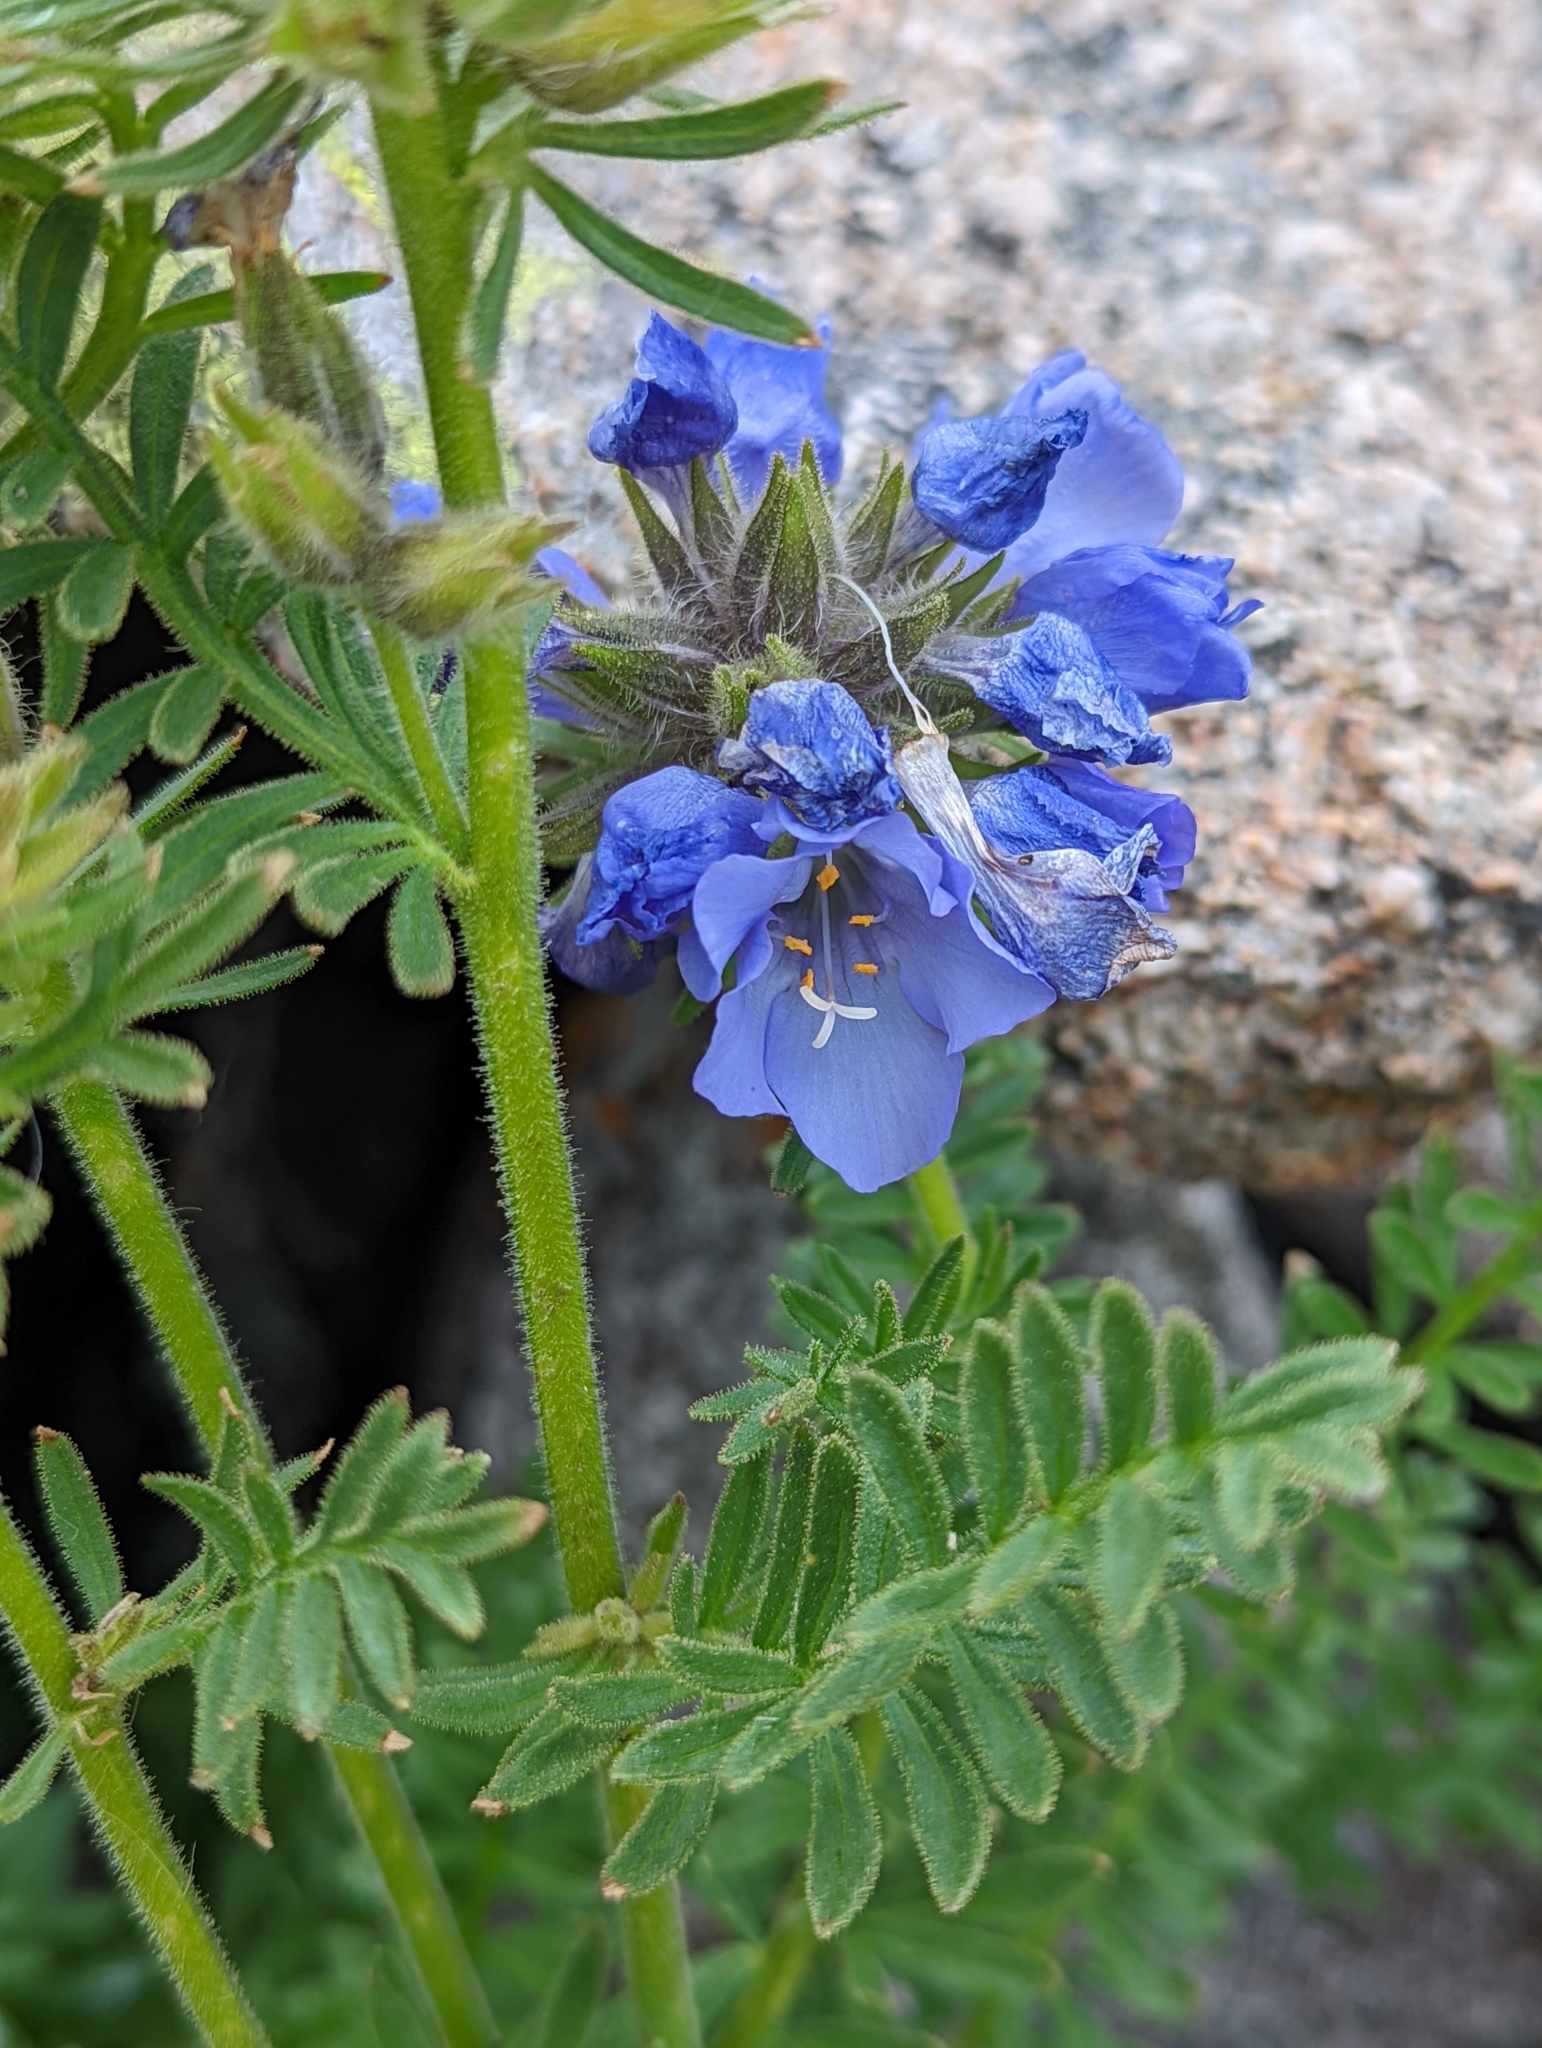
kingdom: Plantae
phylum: Tracheophyta
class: Magnoliopsida
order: Ericales
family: Polemoniaceae
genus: Polemonium
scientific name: Polemonium viscosum
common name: Skunk jacob's-ladder
